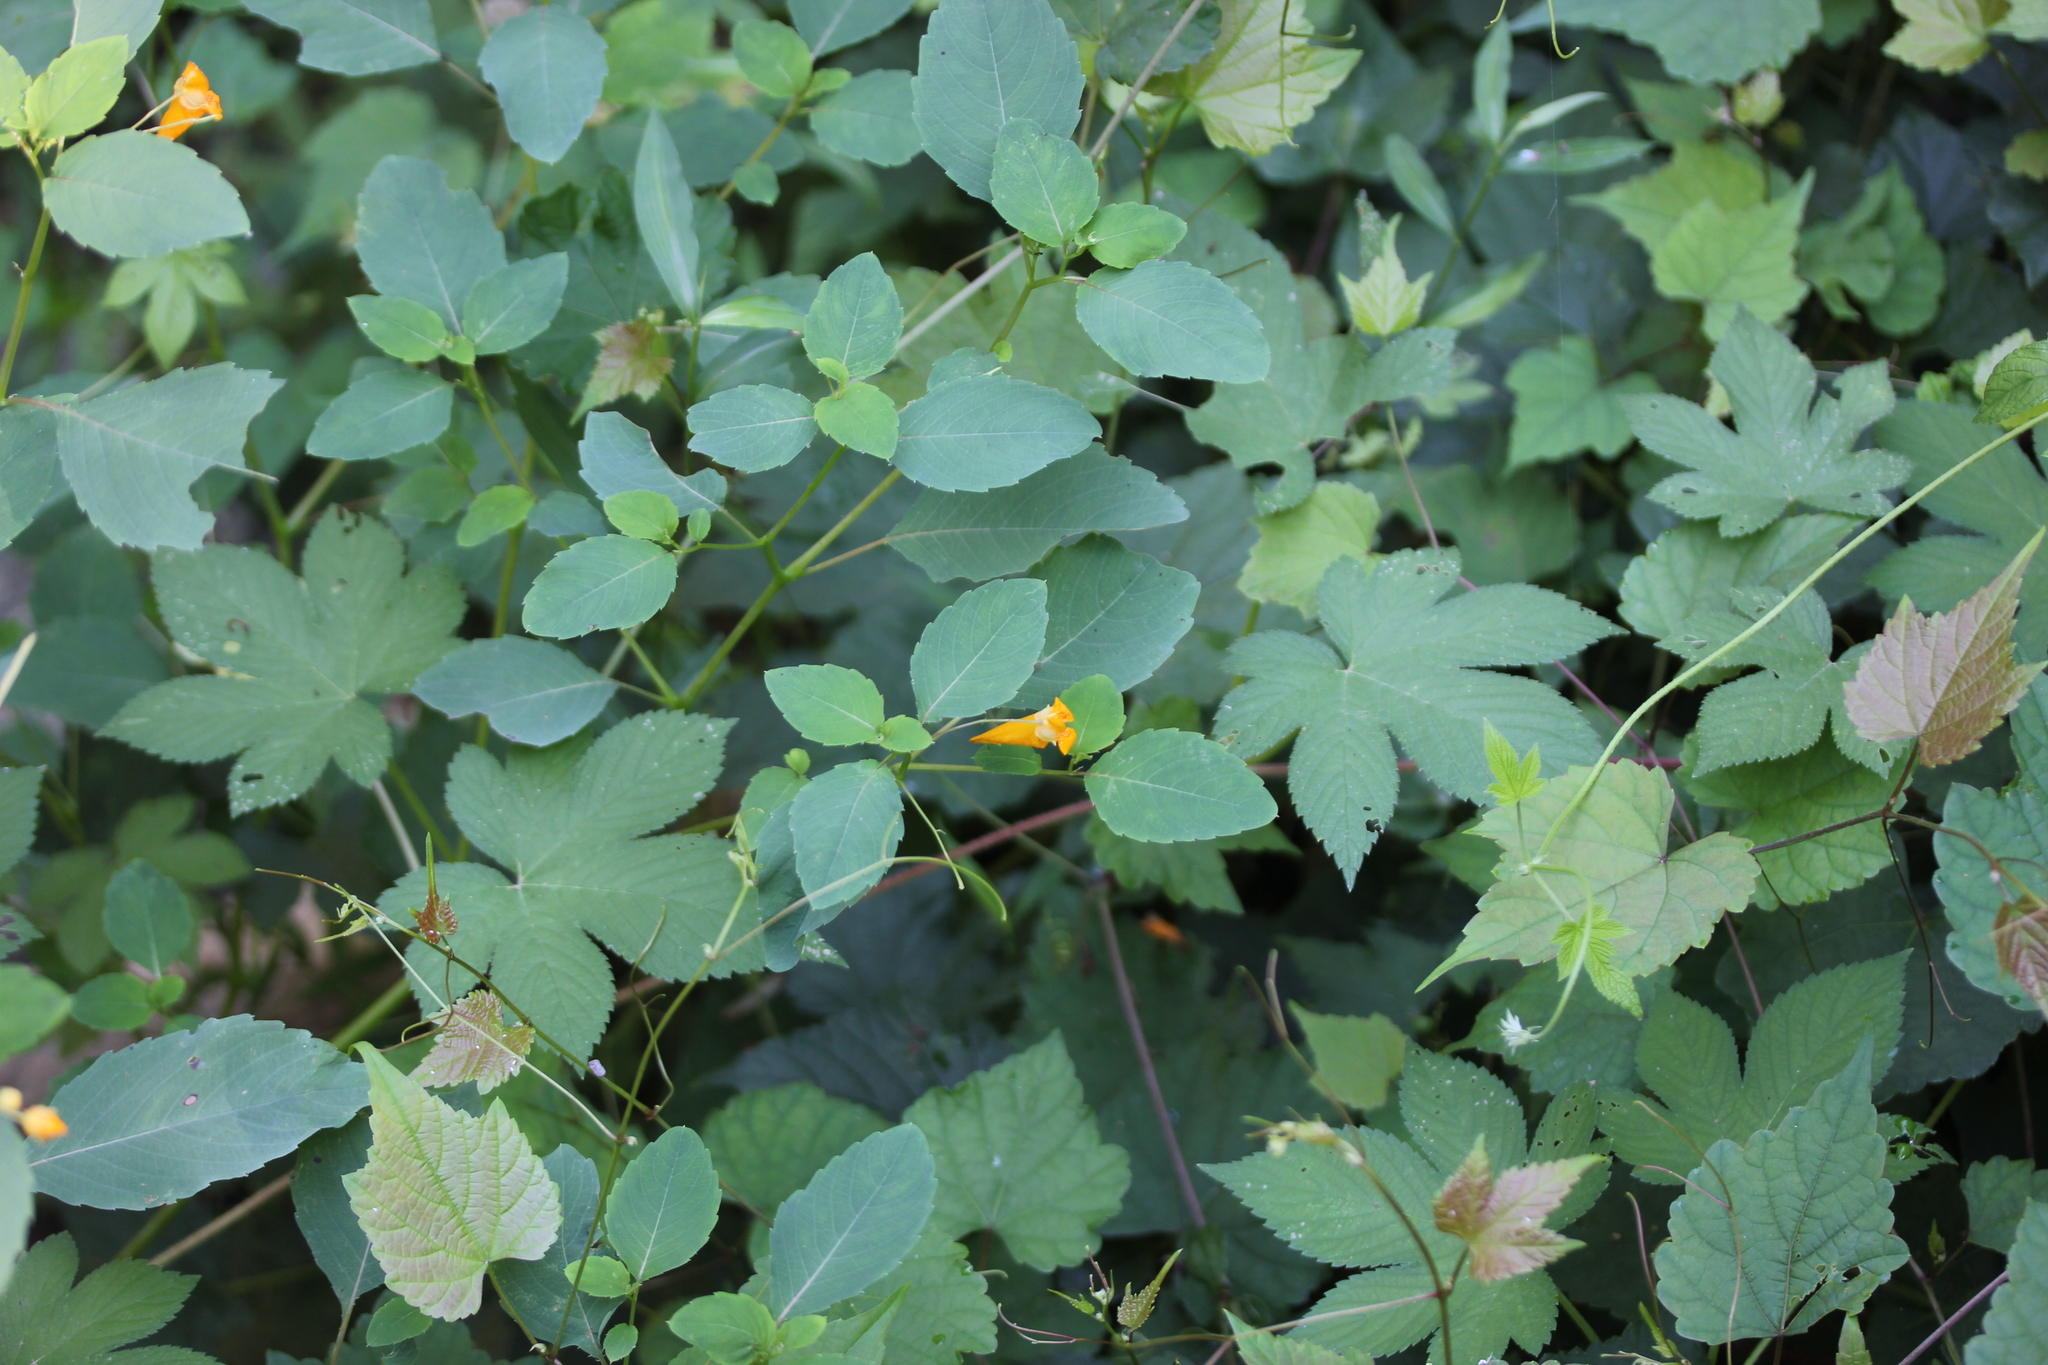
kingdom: Plantae
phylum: Tracheophyta
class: Magnoliopsida
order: Ericales
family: Balsaminaceae
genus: Impatiens
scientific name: Impatiens capensis
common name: Orange balsam
